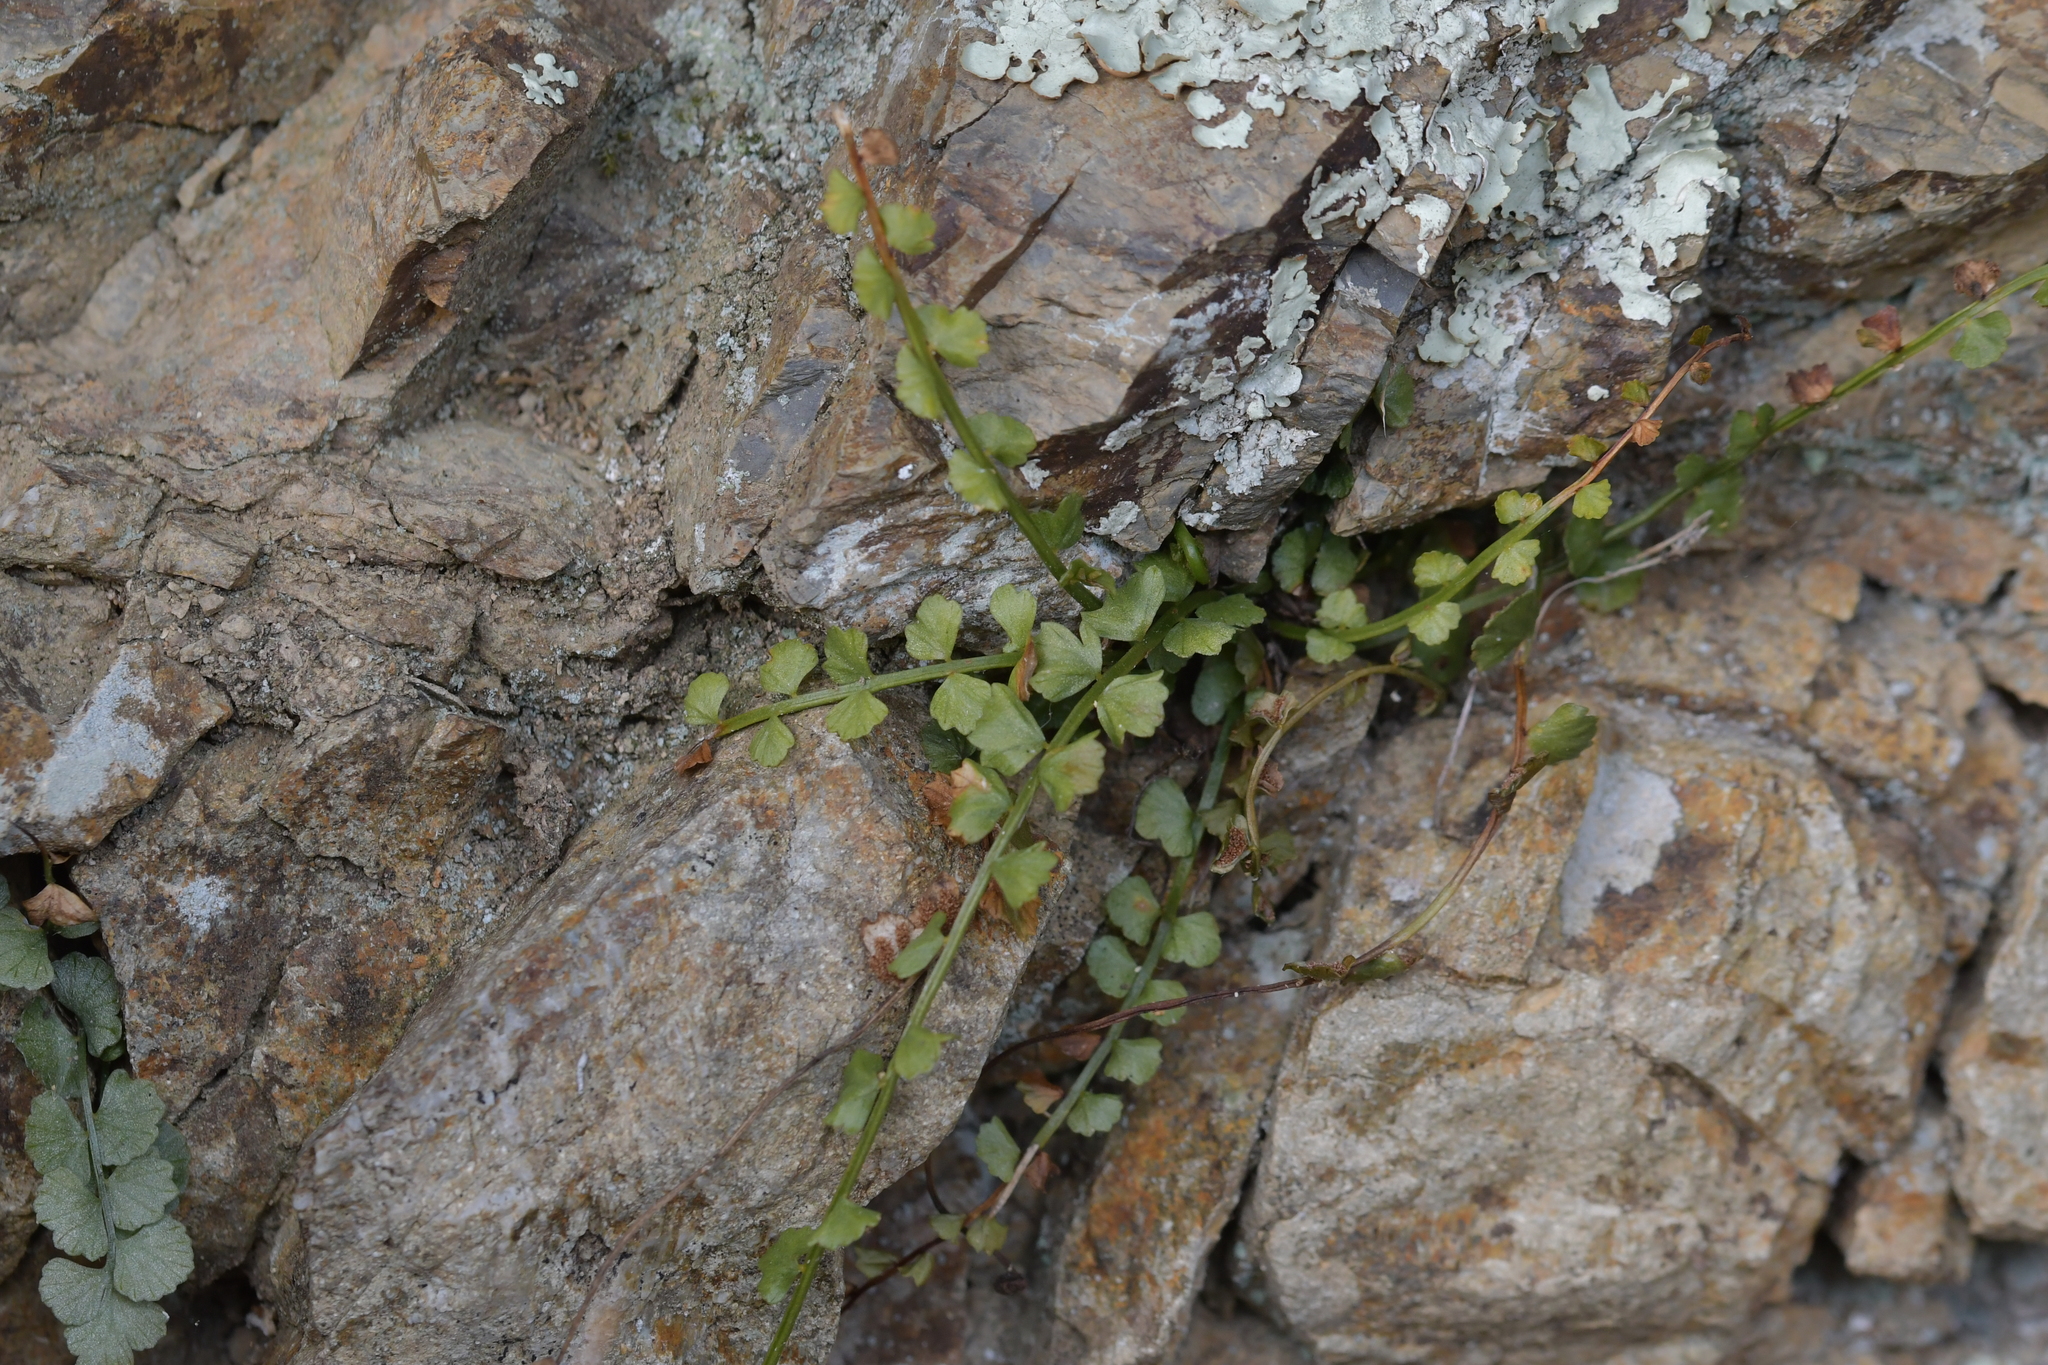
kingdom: Plantae
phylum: Tracheophyta
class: Polypodiopsida
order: Polypodiales
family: Aspleniaceae
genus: Asplenium
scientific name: Asplenium flabellifolium
